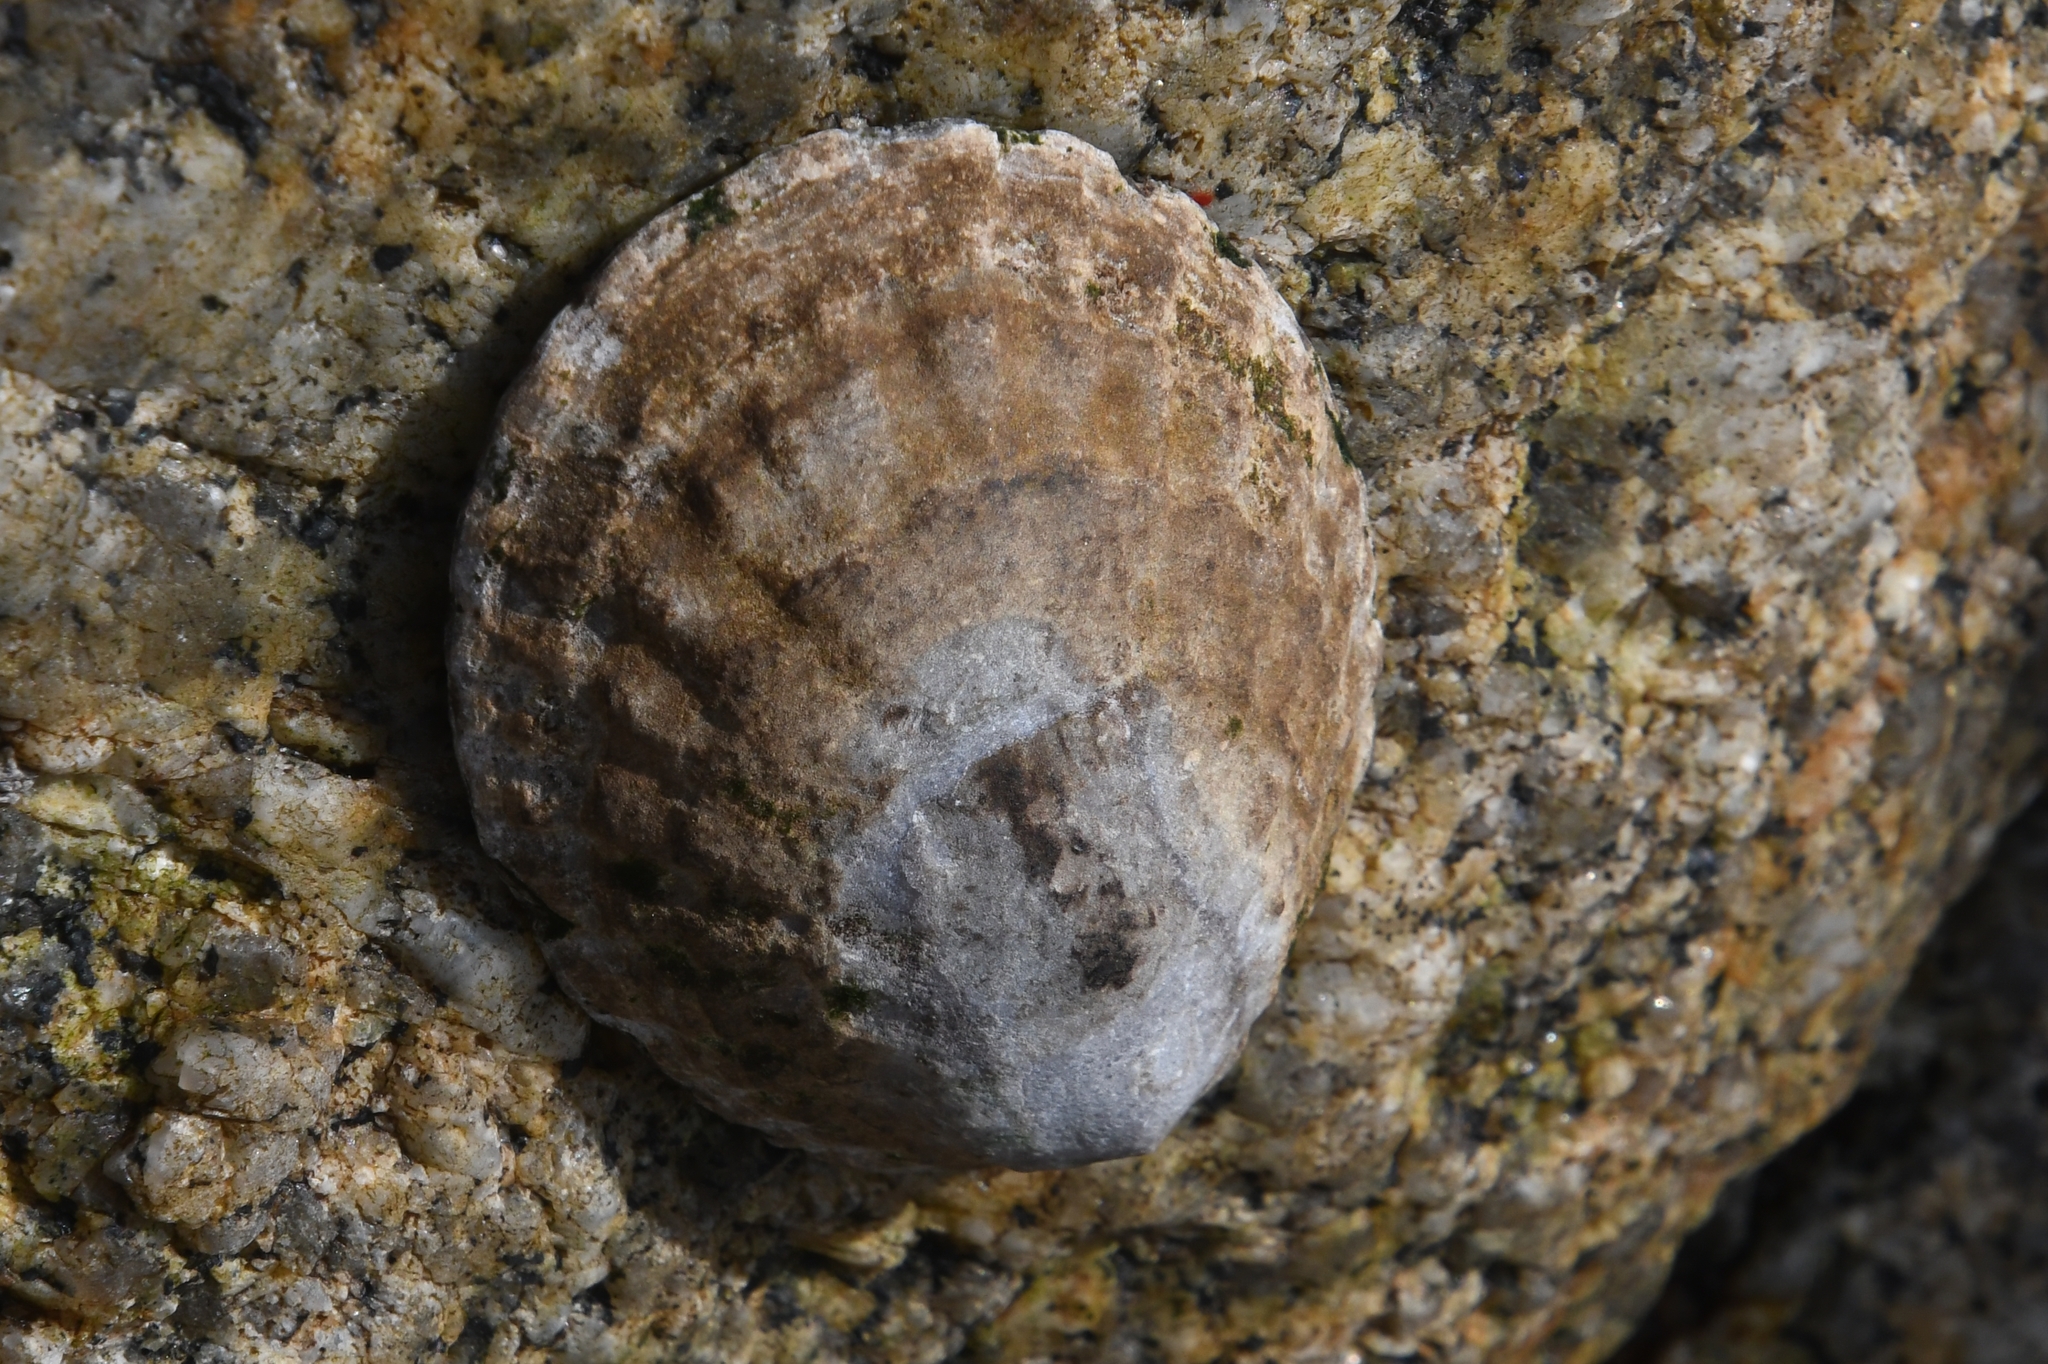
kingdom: Animalia
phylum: Mollusca
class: Gastropoda
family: Lottiidae
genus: Lottia
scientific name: Lottia gigantea
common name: Owl limpet
